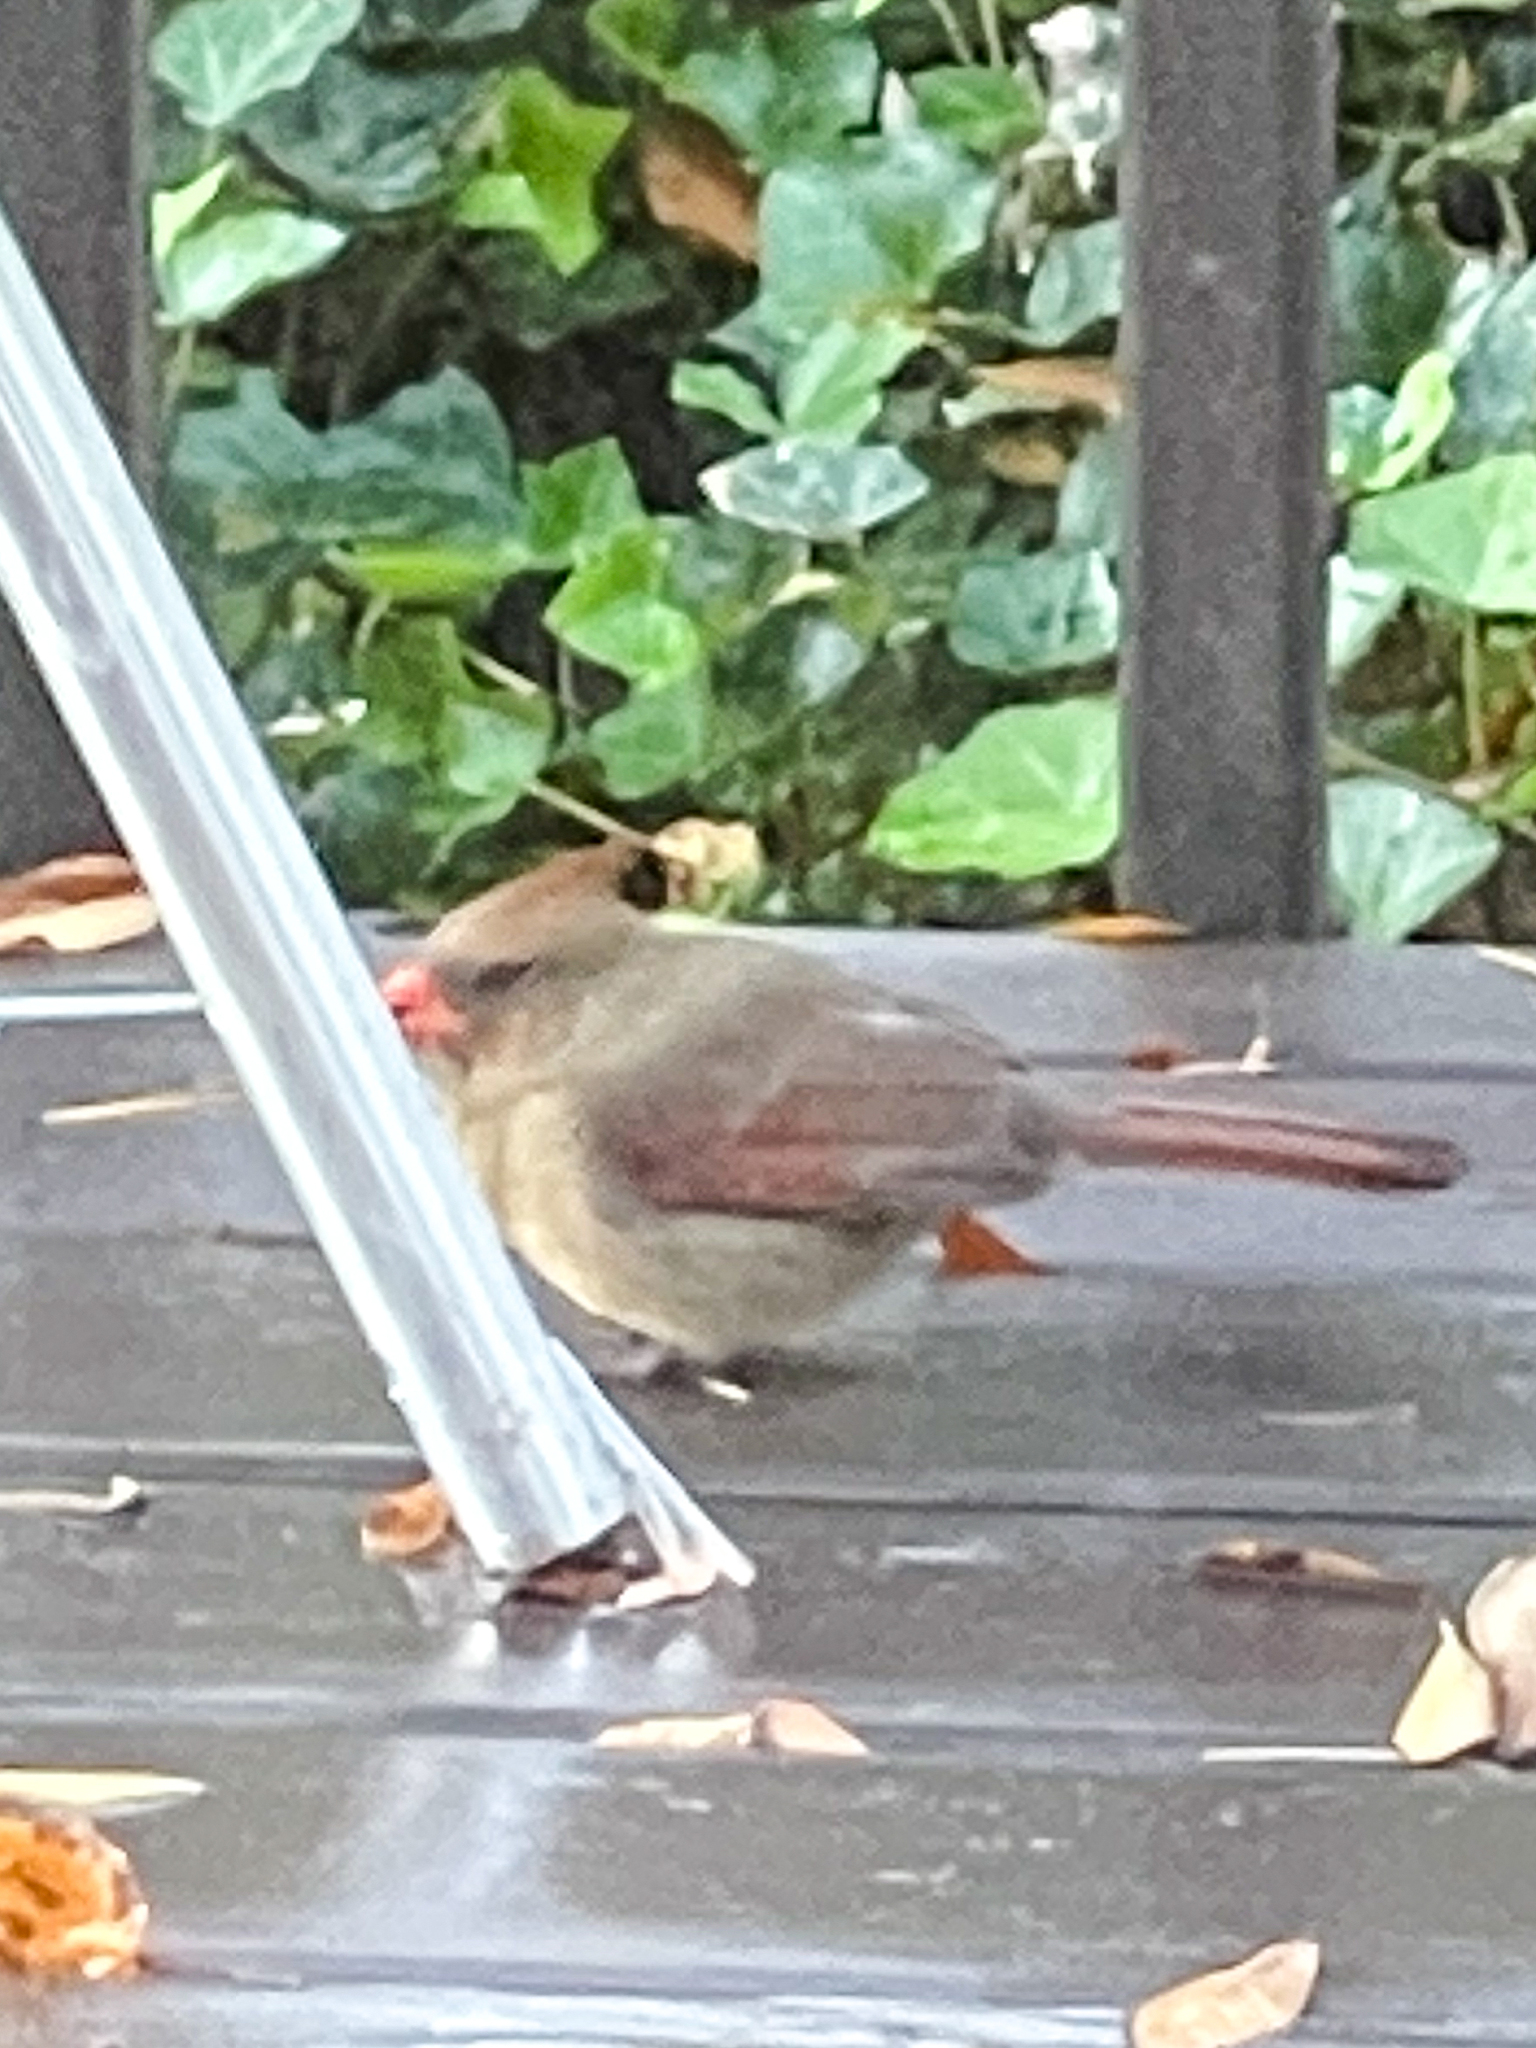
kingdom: Animalia
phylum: Chordata
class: Aves
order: Passeriformes
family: Cardinalidae
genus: Cardinalis
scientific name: Cardinalis cardinalis
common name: Northern cardinal
